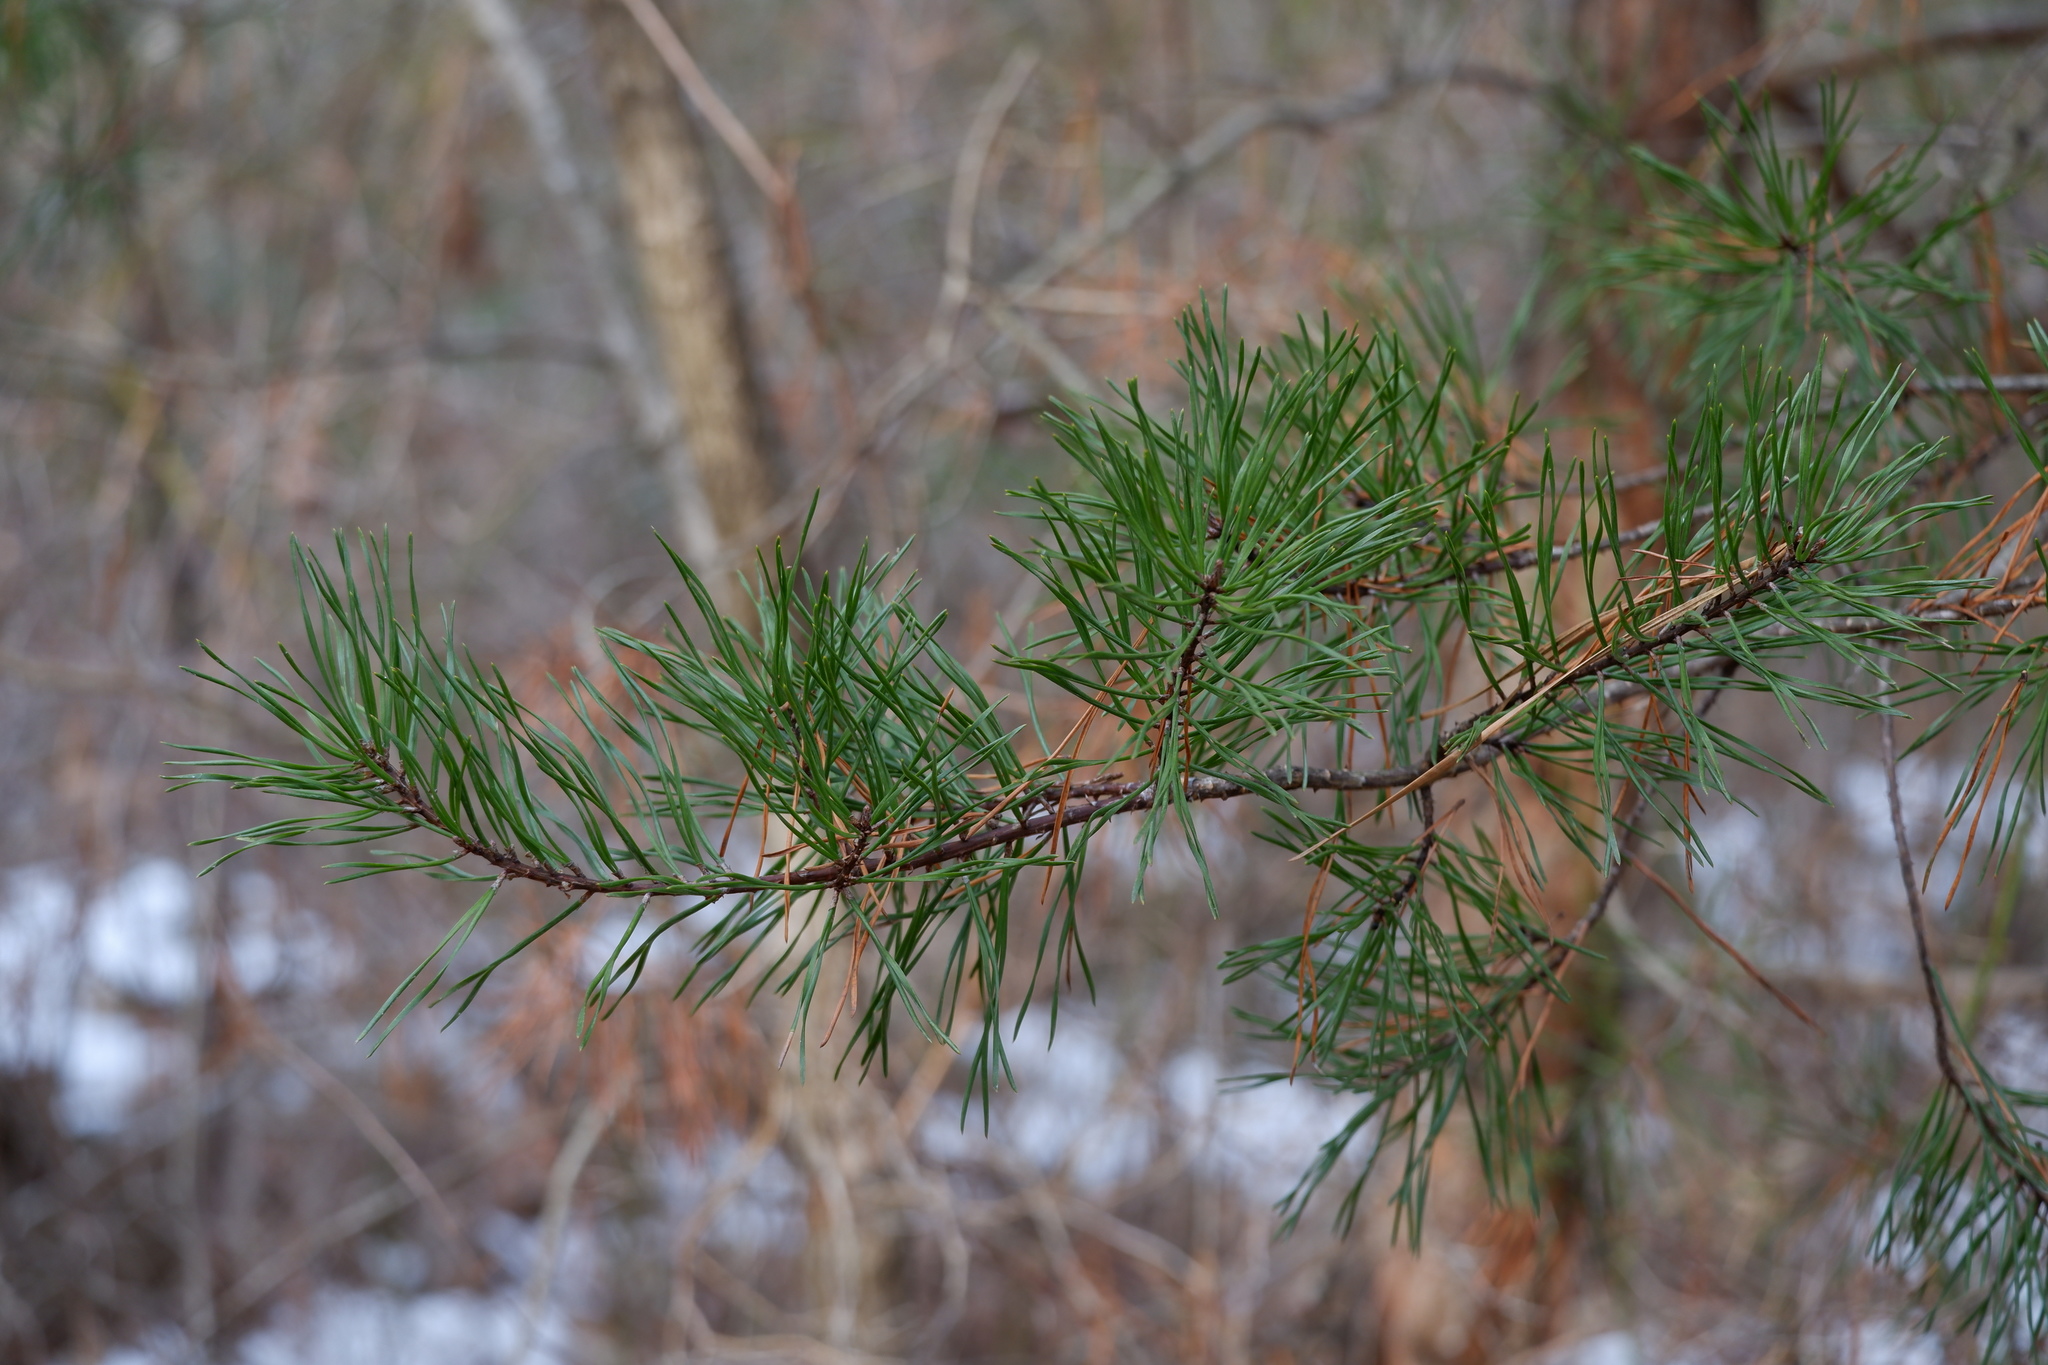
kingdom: Plantae
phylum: Tracheophyta
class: Pinopsida
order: Pinales
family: Pinaceae
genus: Pinus
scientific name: Pinus virginiana
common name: Scrub pine
